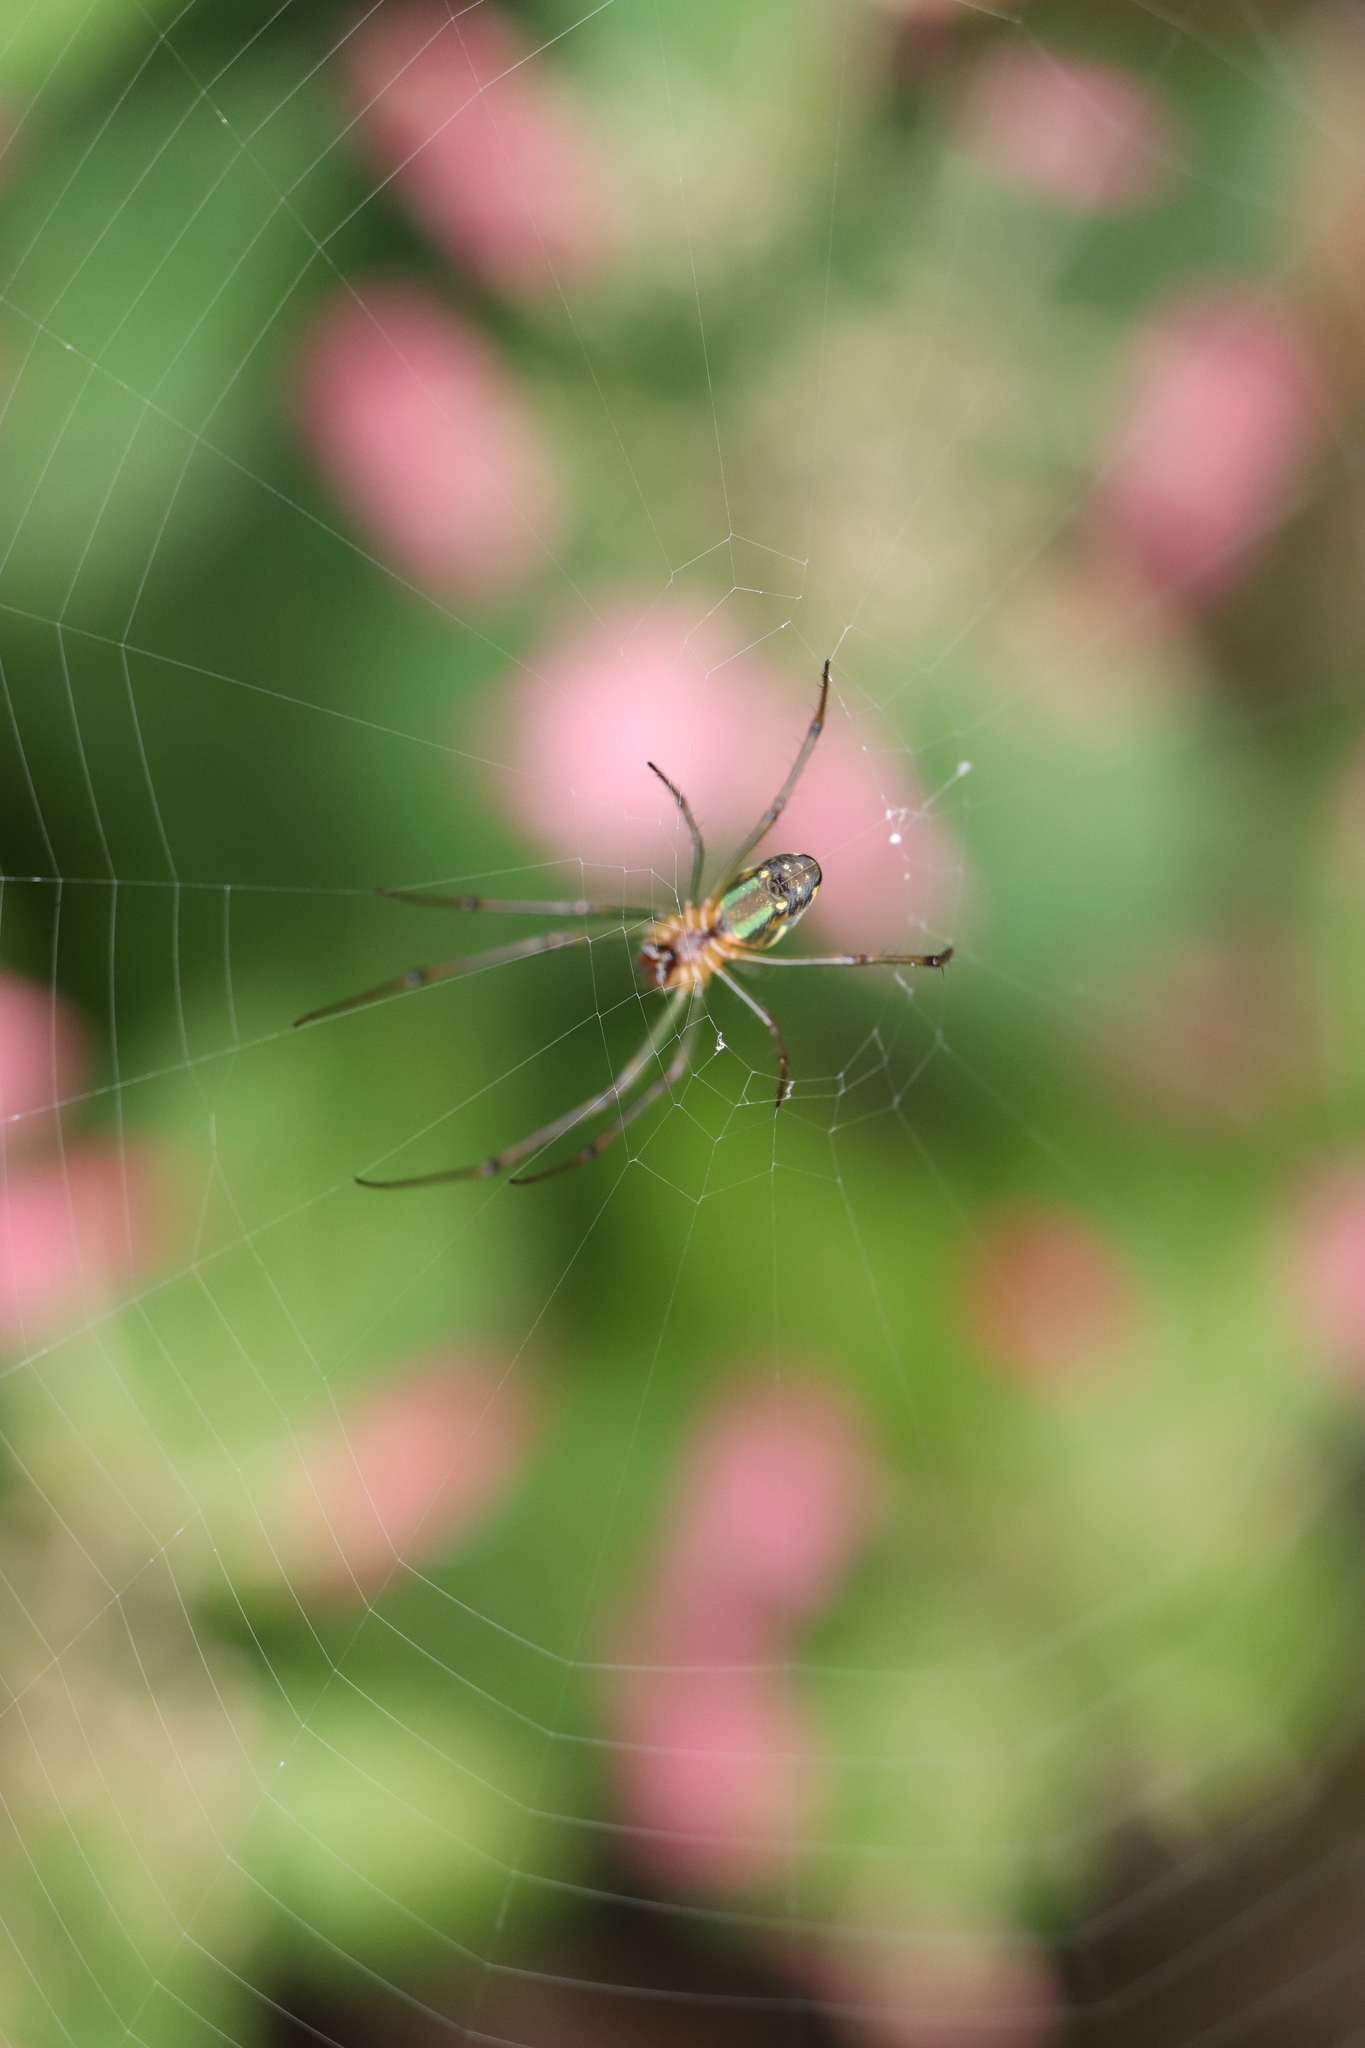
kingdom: Animalia
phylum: Arthropoda
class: Arachnida
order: Araneae
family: Tetragnathidae
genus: Leucauge
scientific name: Leucauge celebesiana
